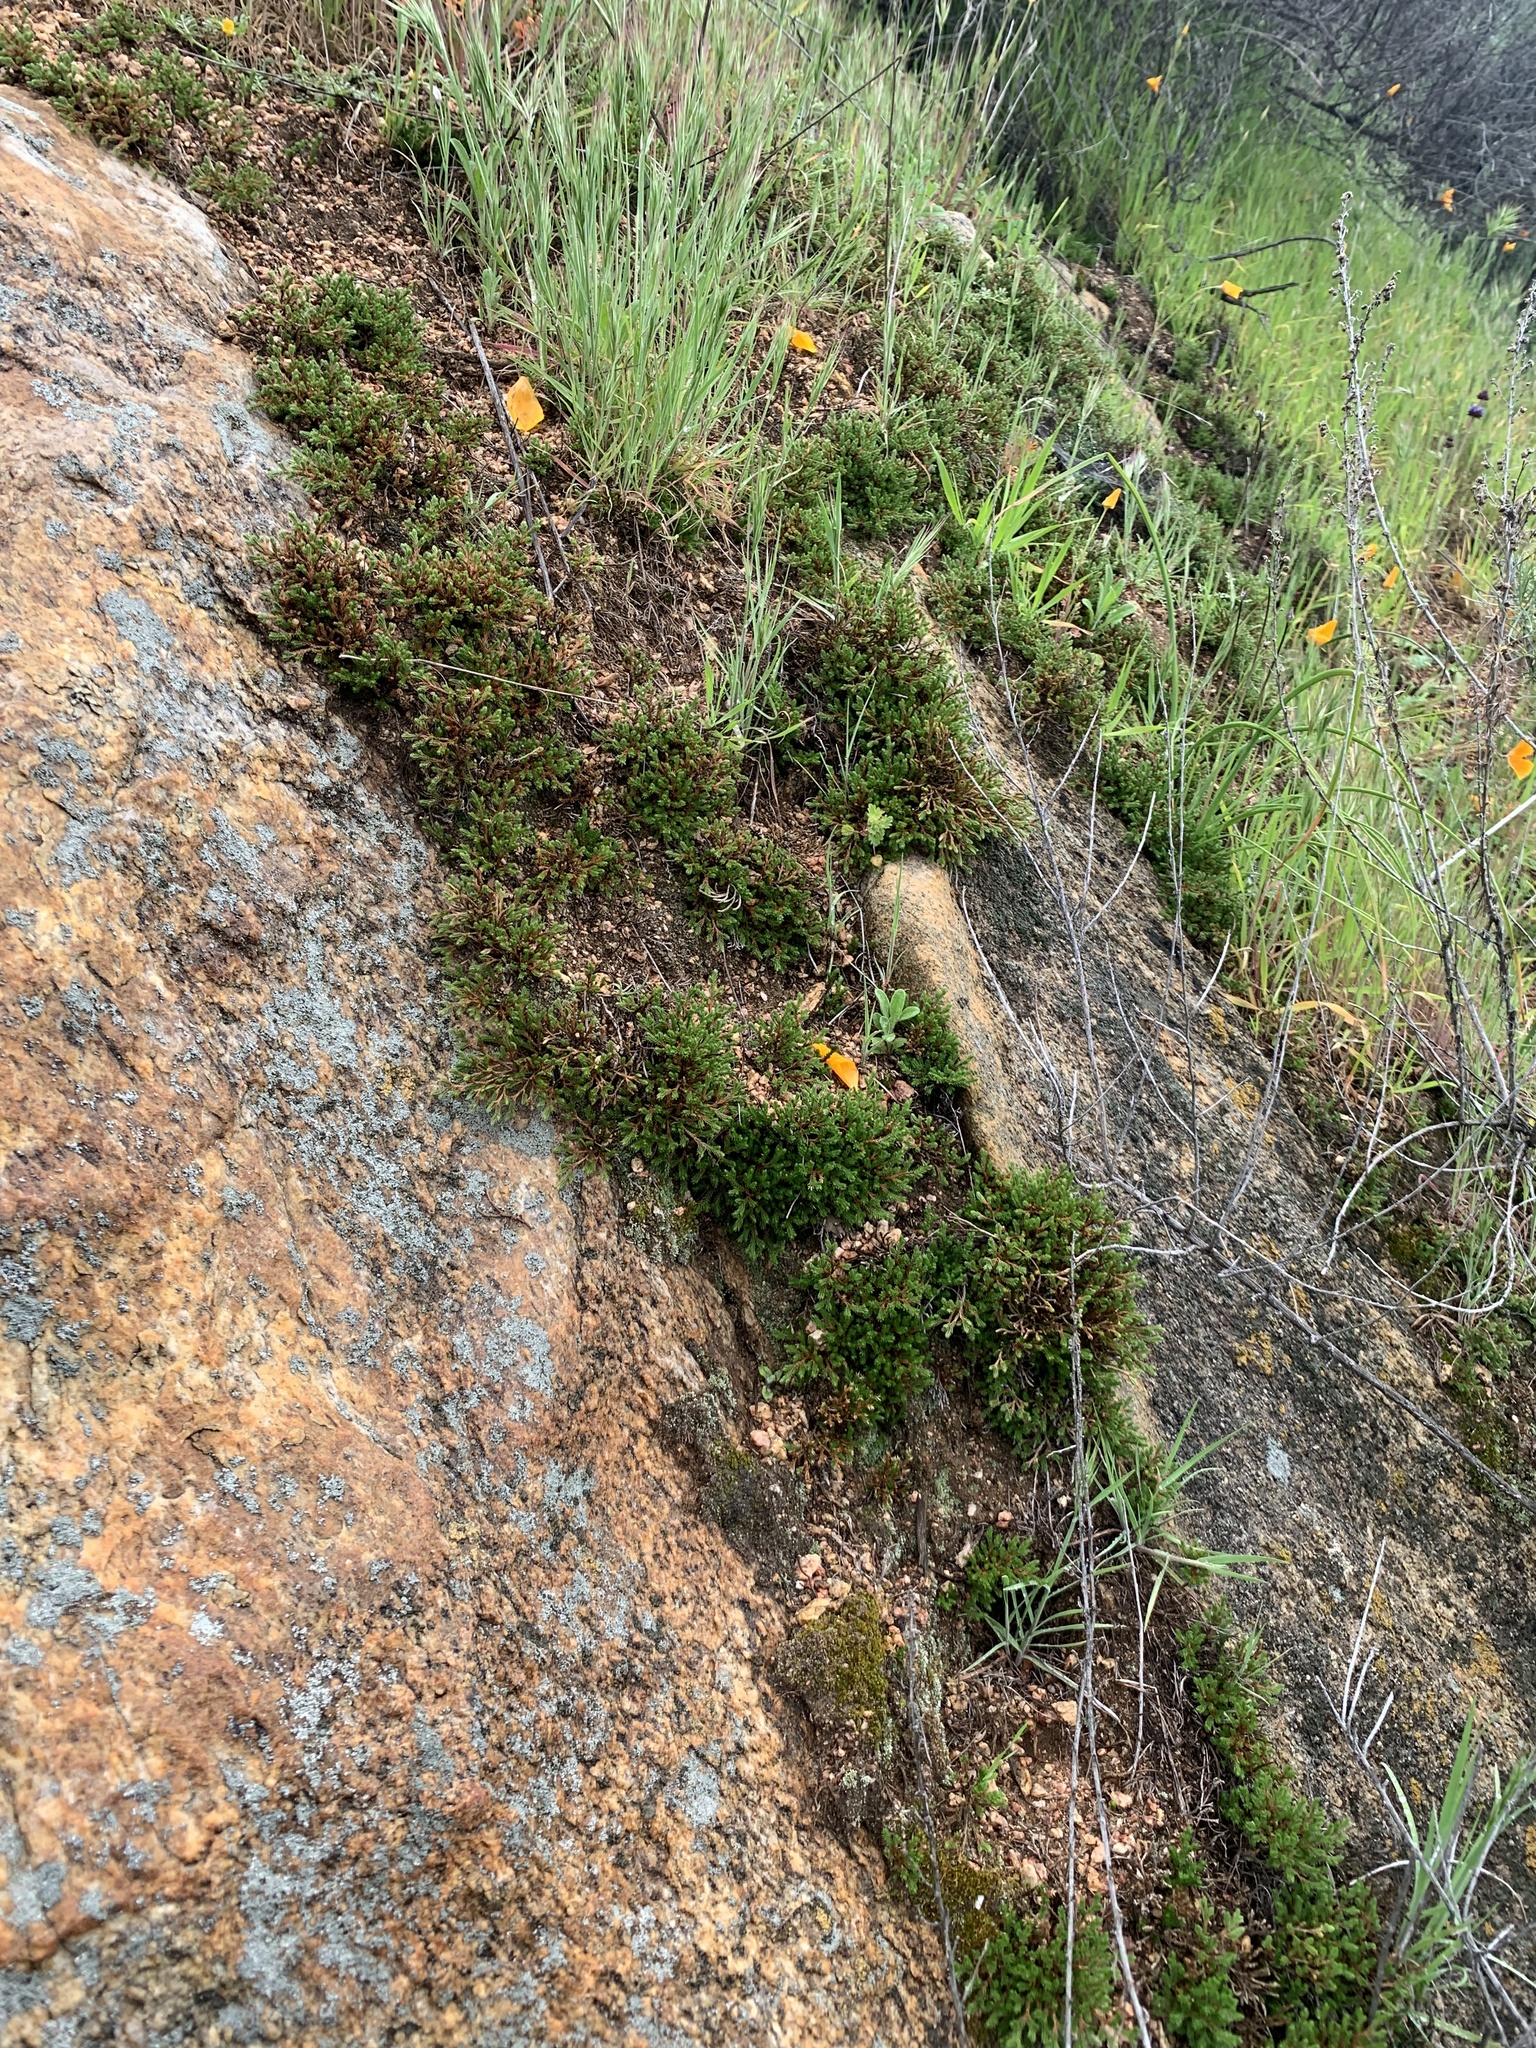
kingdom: Plantae
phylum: Tracheophyta
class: Lycopodiopsida
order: Selaginellales
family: Selaginellaceae
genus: Selaginella
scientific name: Selaginella bigelovii
